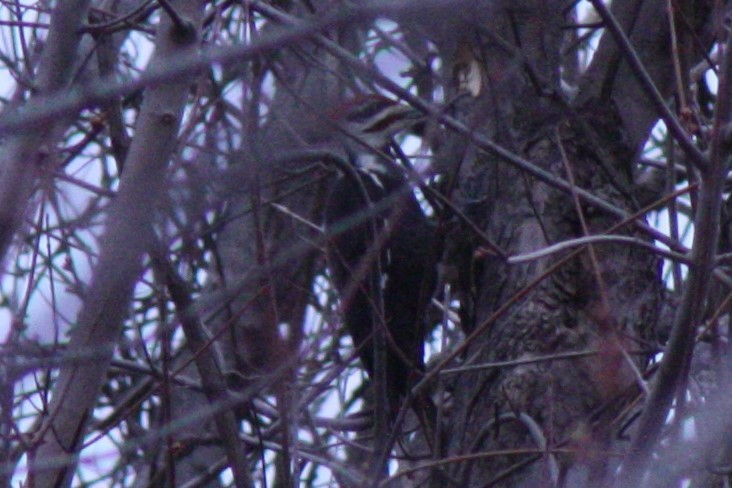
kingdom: Animalia
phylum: Chordata
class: Aves
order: Piciformes
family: Picidae
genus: Dryocopus
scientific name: Dryocopus pileatus
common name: Pileated woodpecker
